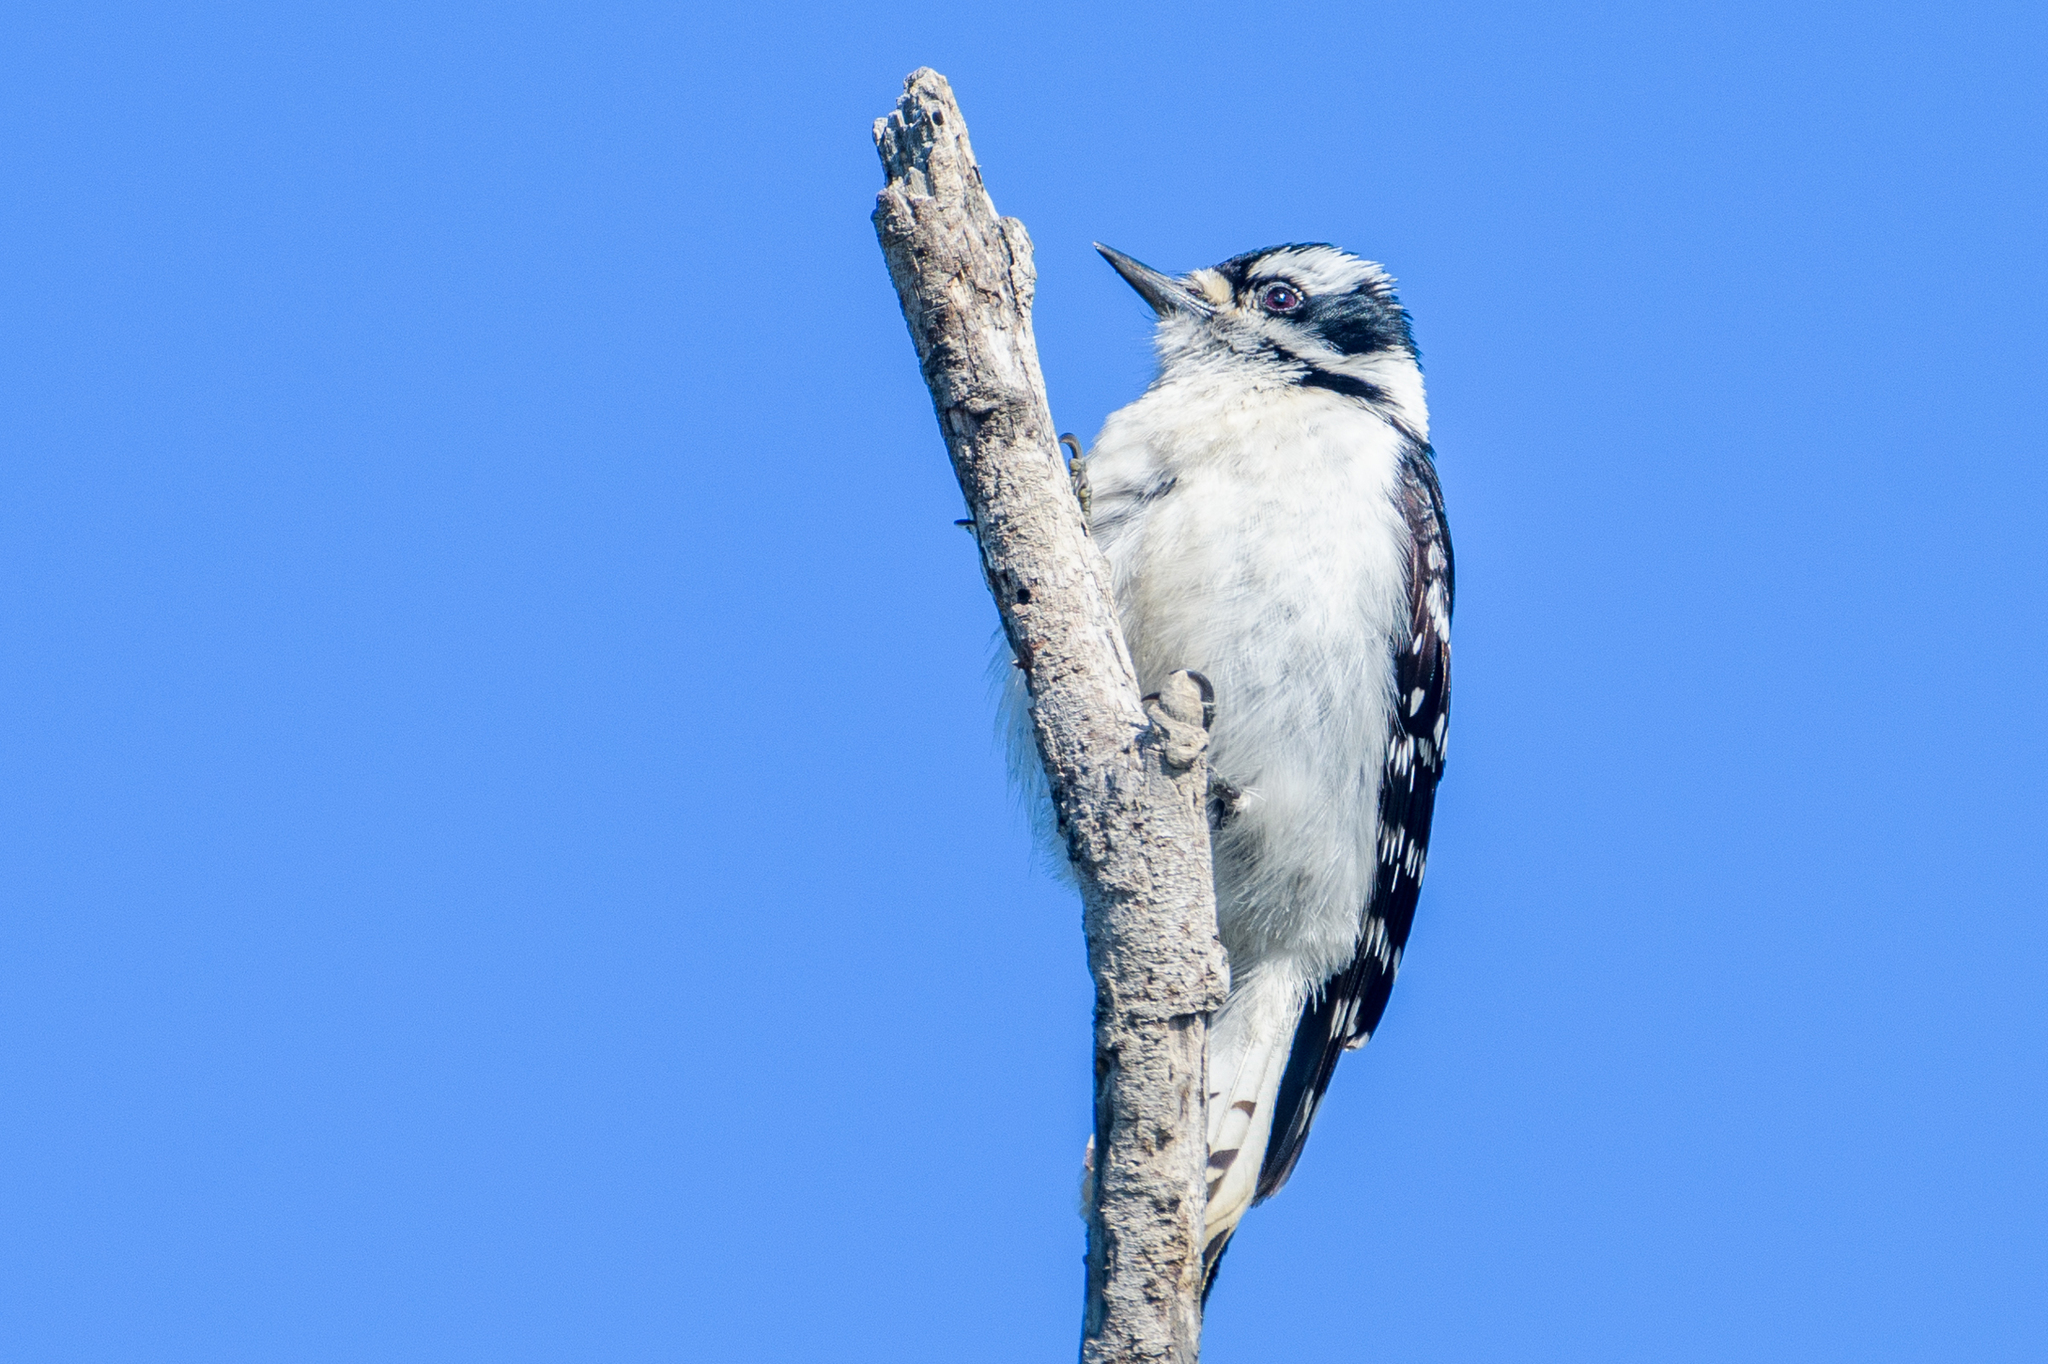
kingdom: Animalia
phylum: Chordata
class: Aves
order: Piciformes
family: Picidae
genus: Dryobates
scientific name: Dryobates pubescens
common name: Downy woodpecker
